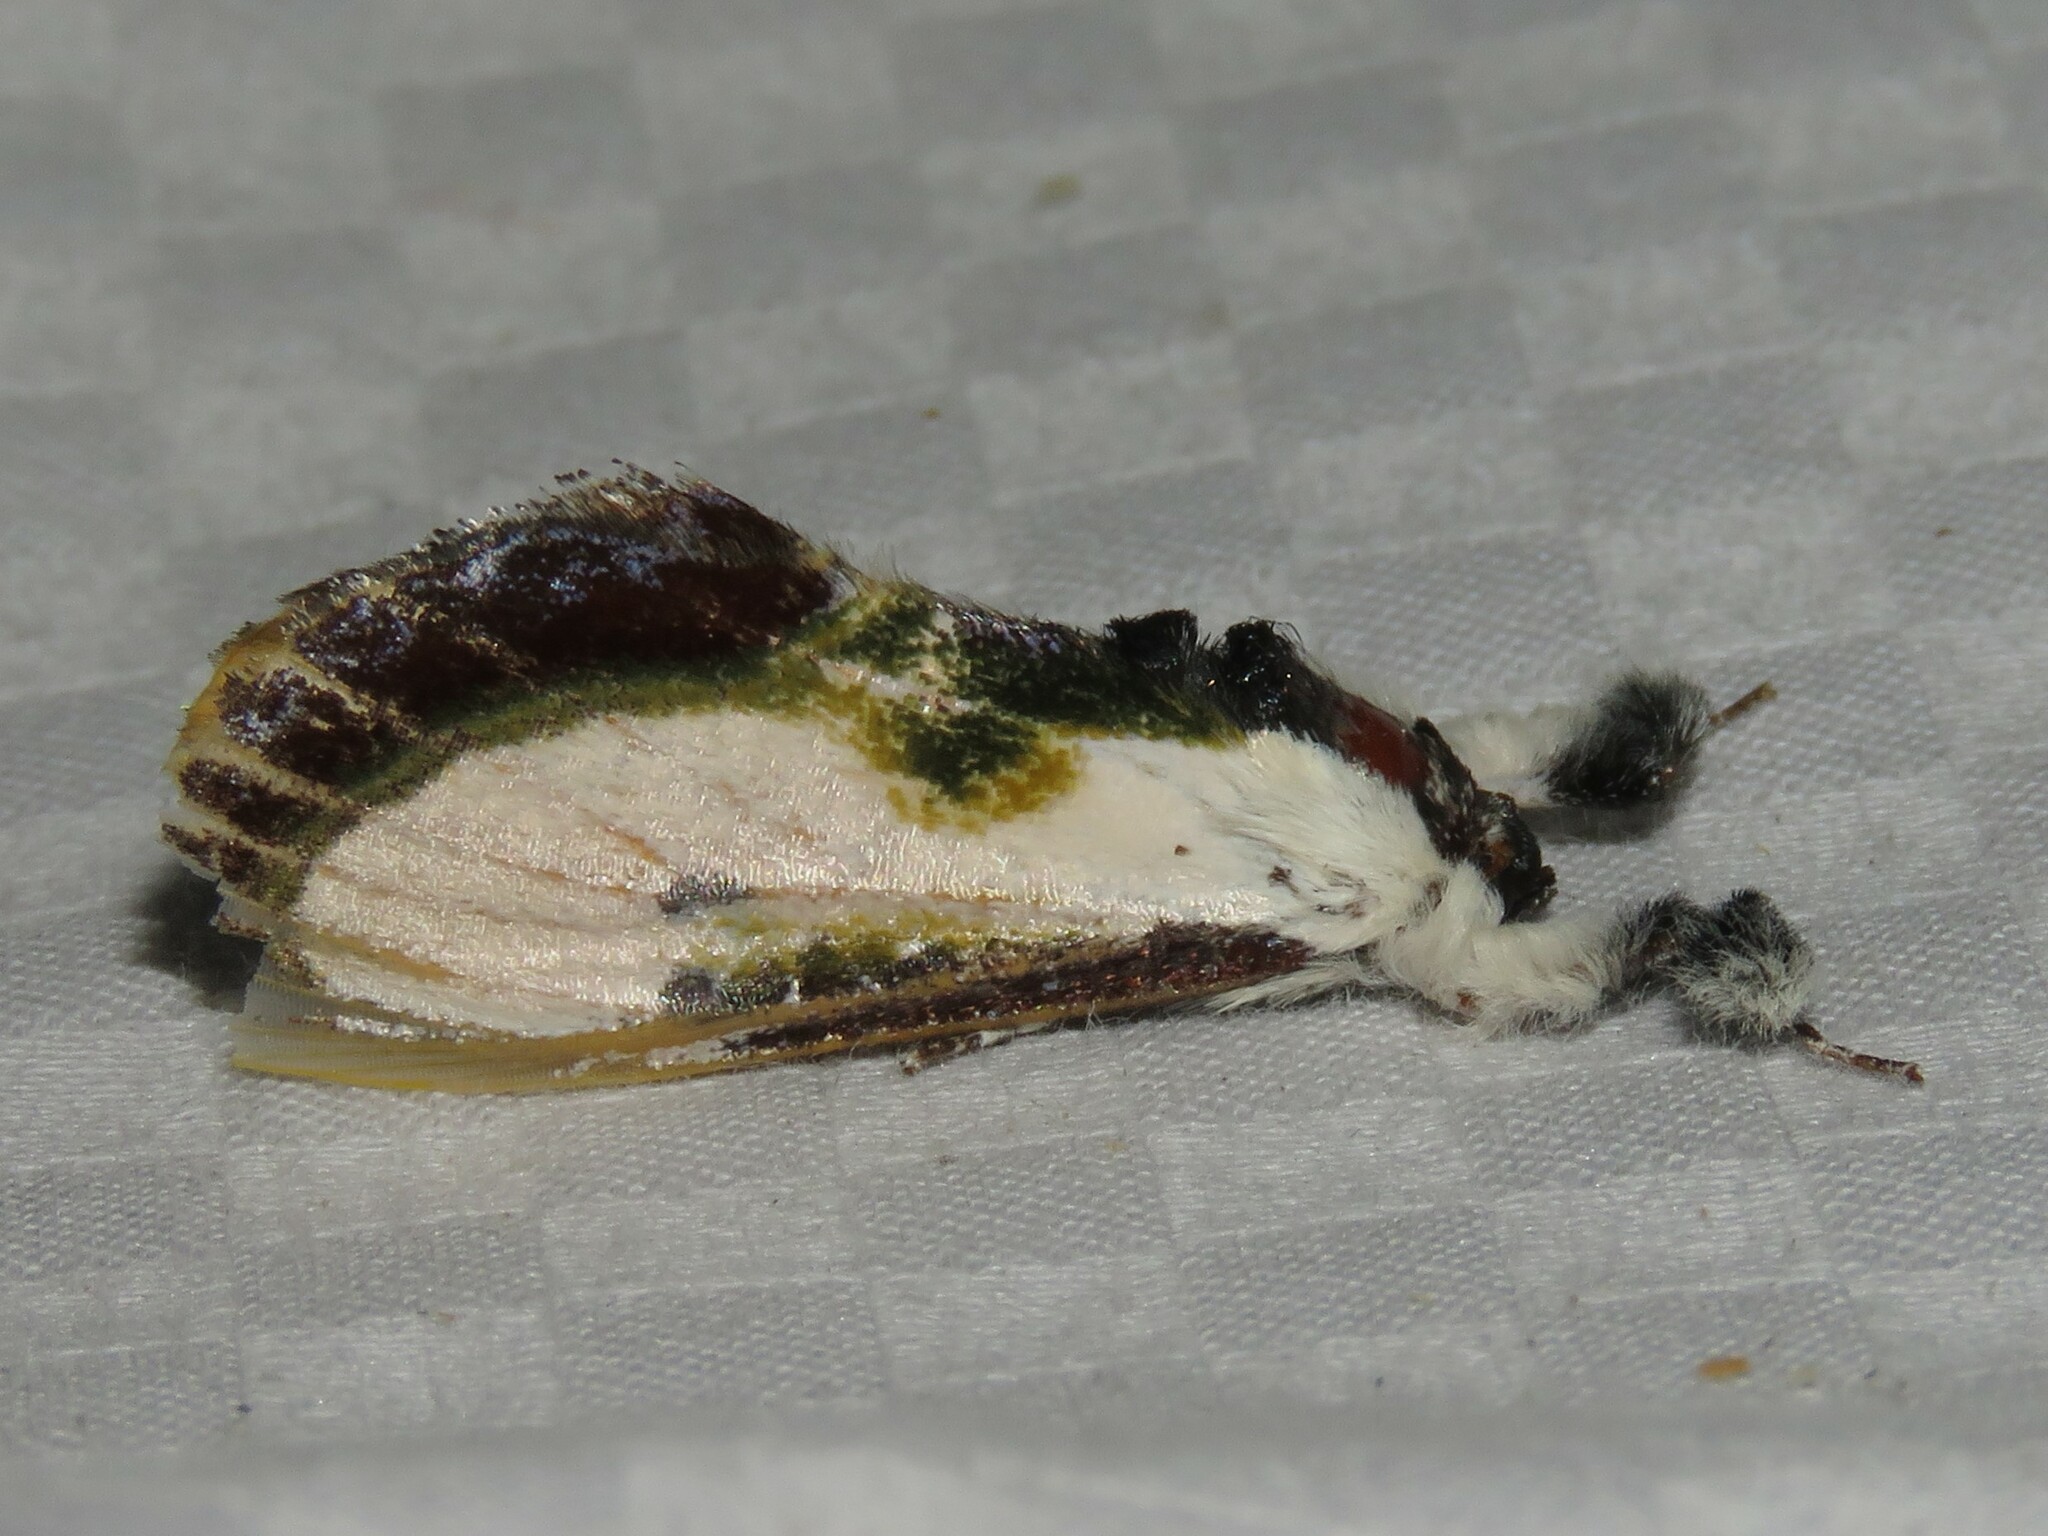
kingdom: Animalia
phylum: Arthropoda
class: Insecta
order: Lepidoptera
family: Noctuidae
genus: Eudryas
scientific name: Eudryas grata
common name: Beautiful wood-nymph
